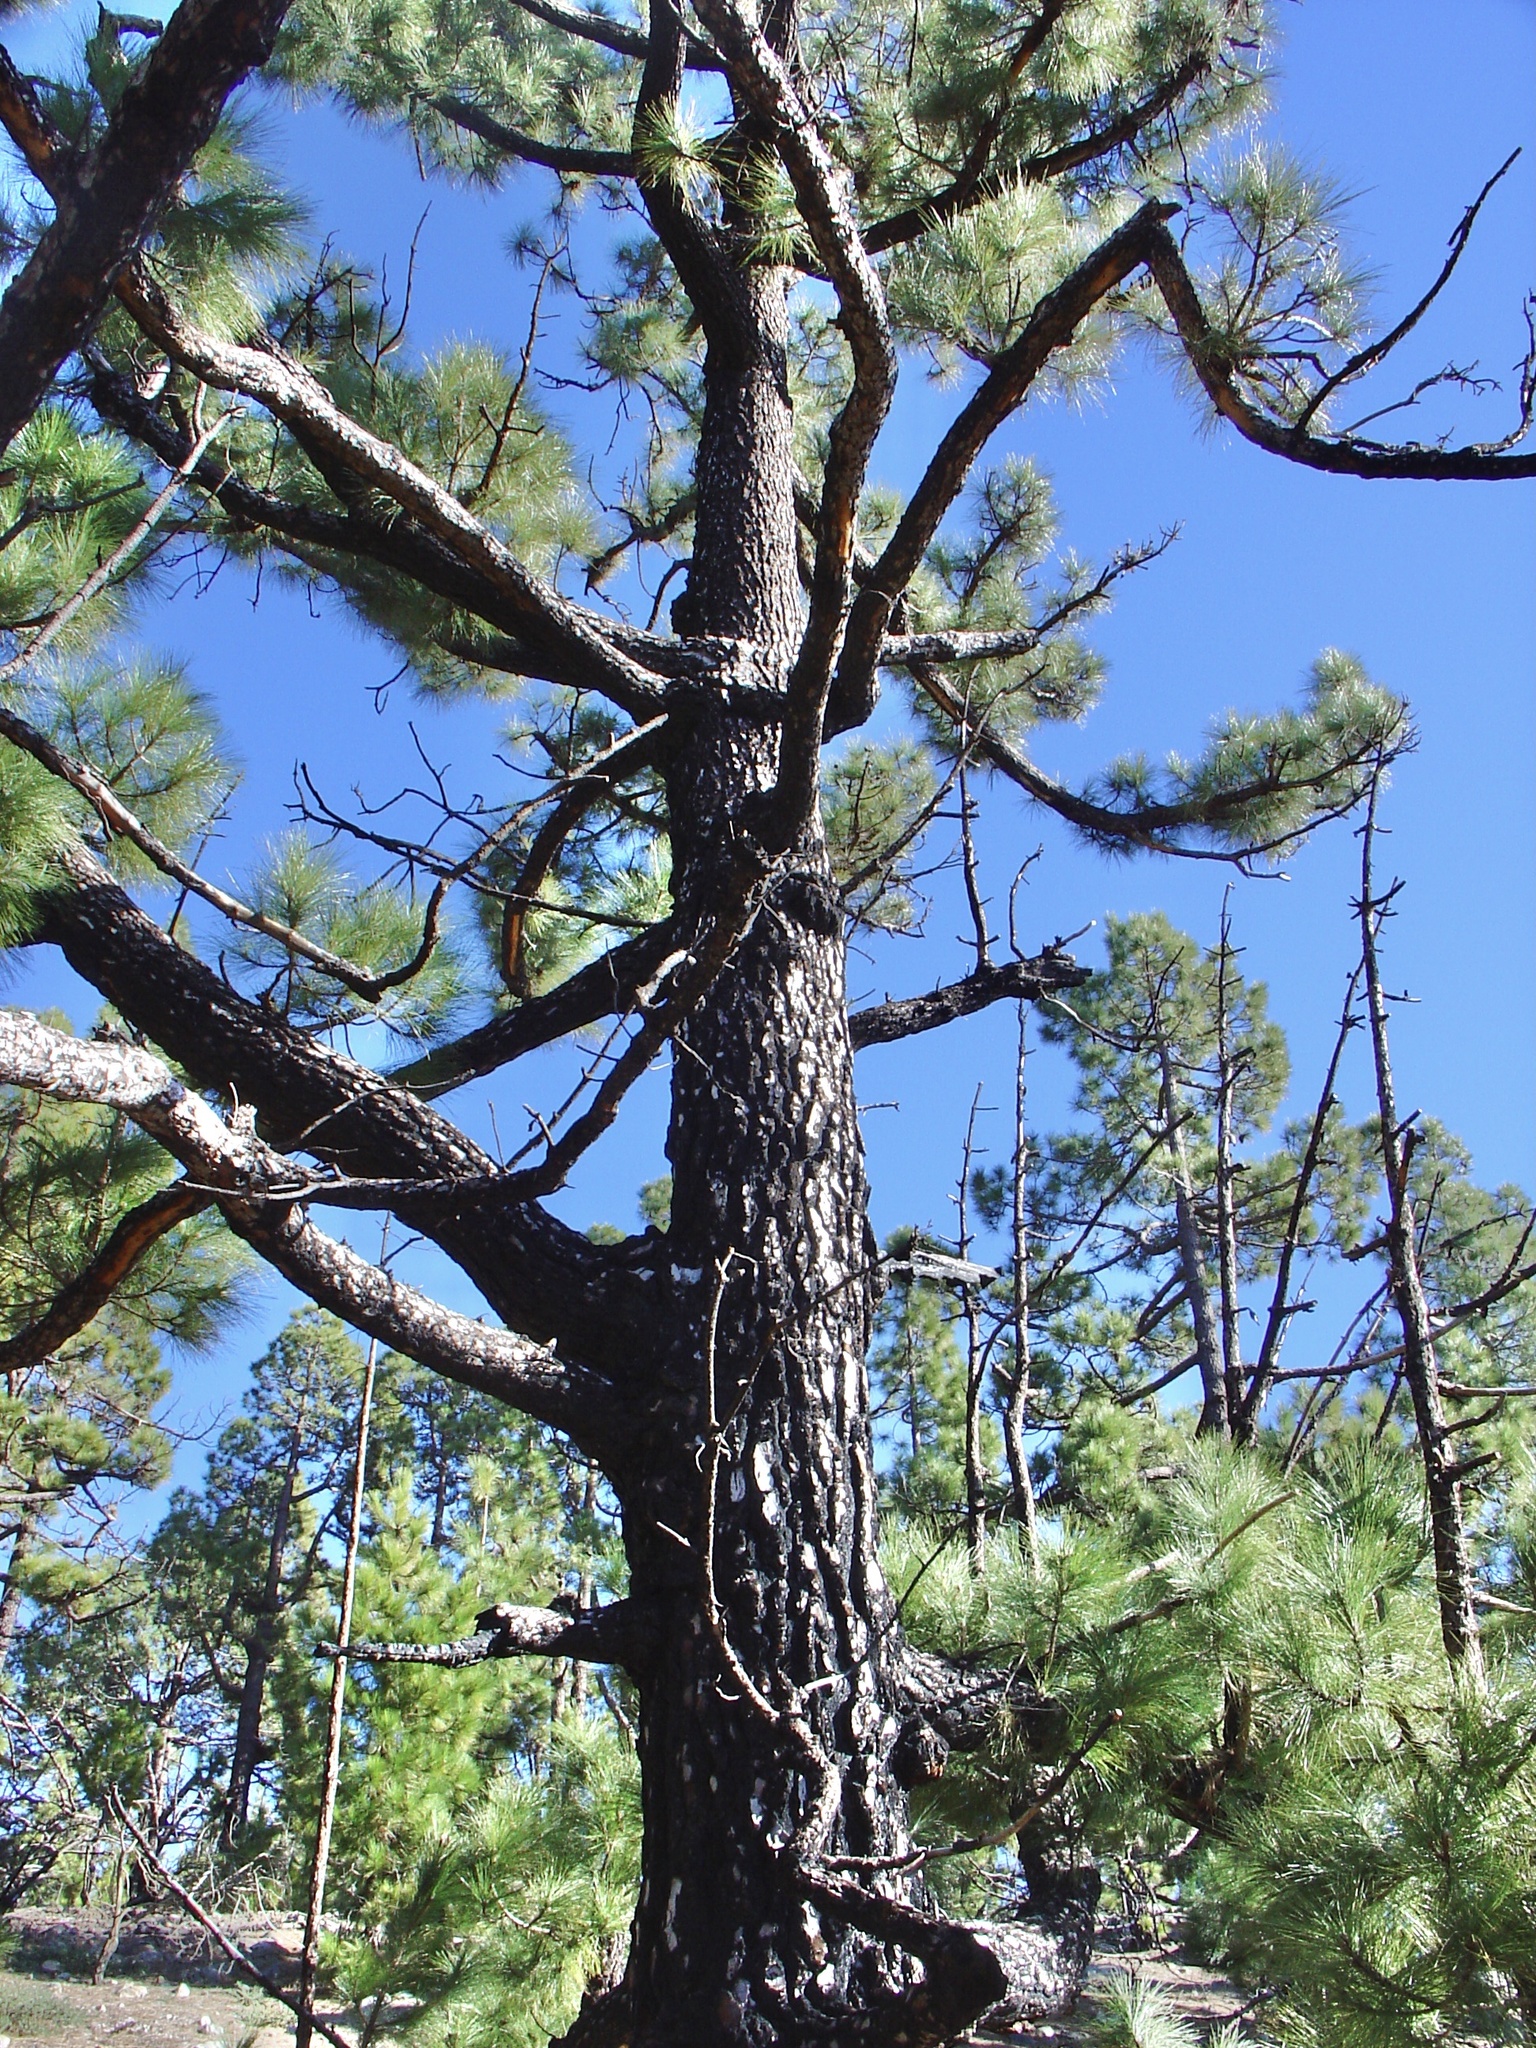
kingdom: Plantae
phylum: Tracheophyta
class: Pinopsida
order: Pinales
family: Pinaceae
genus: Pinus
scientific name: Pinus canariensis
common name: Canary islands pine
